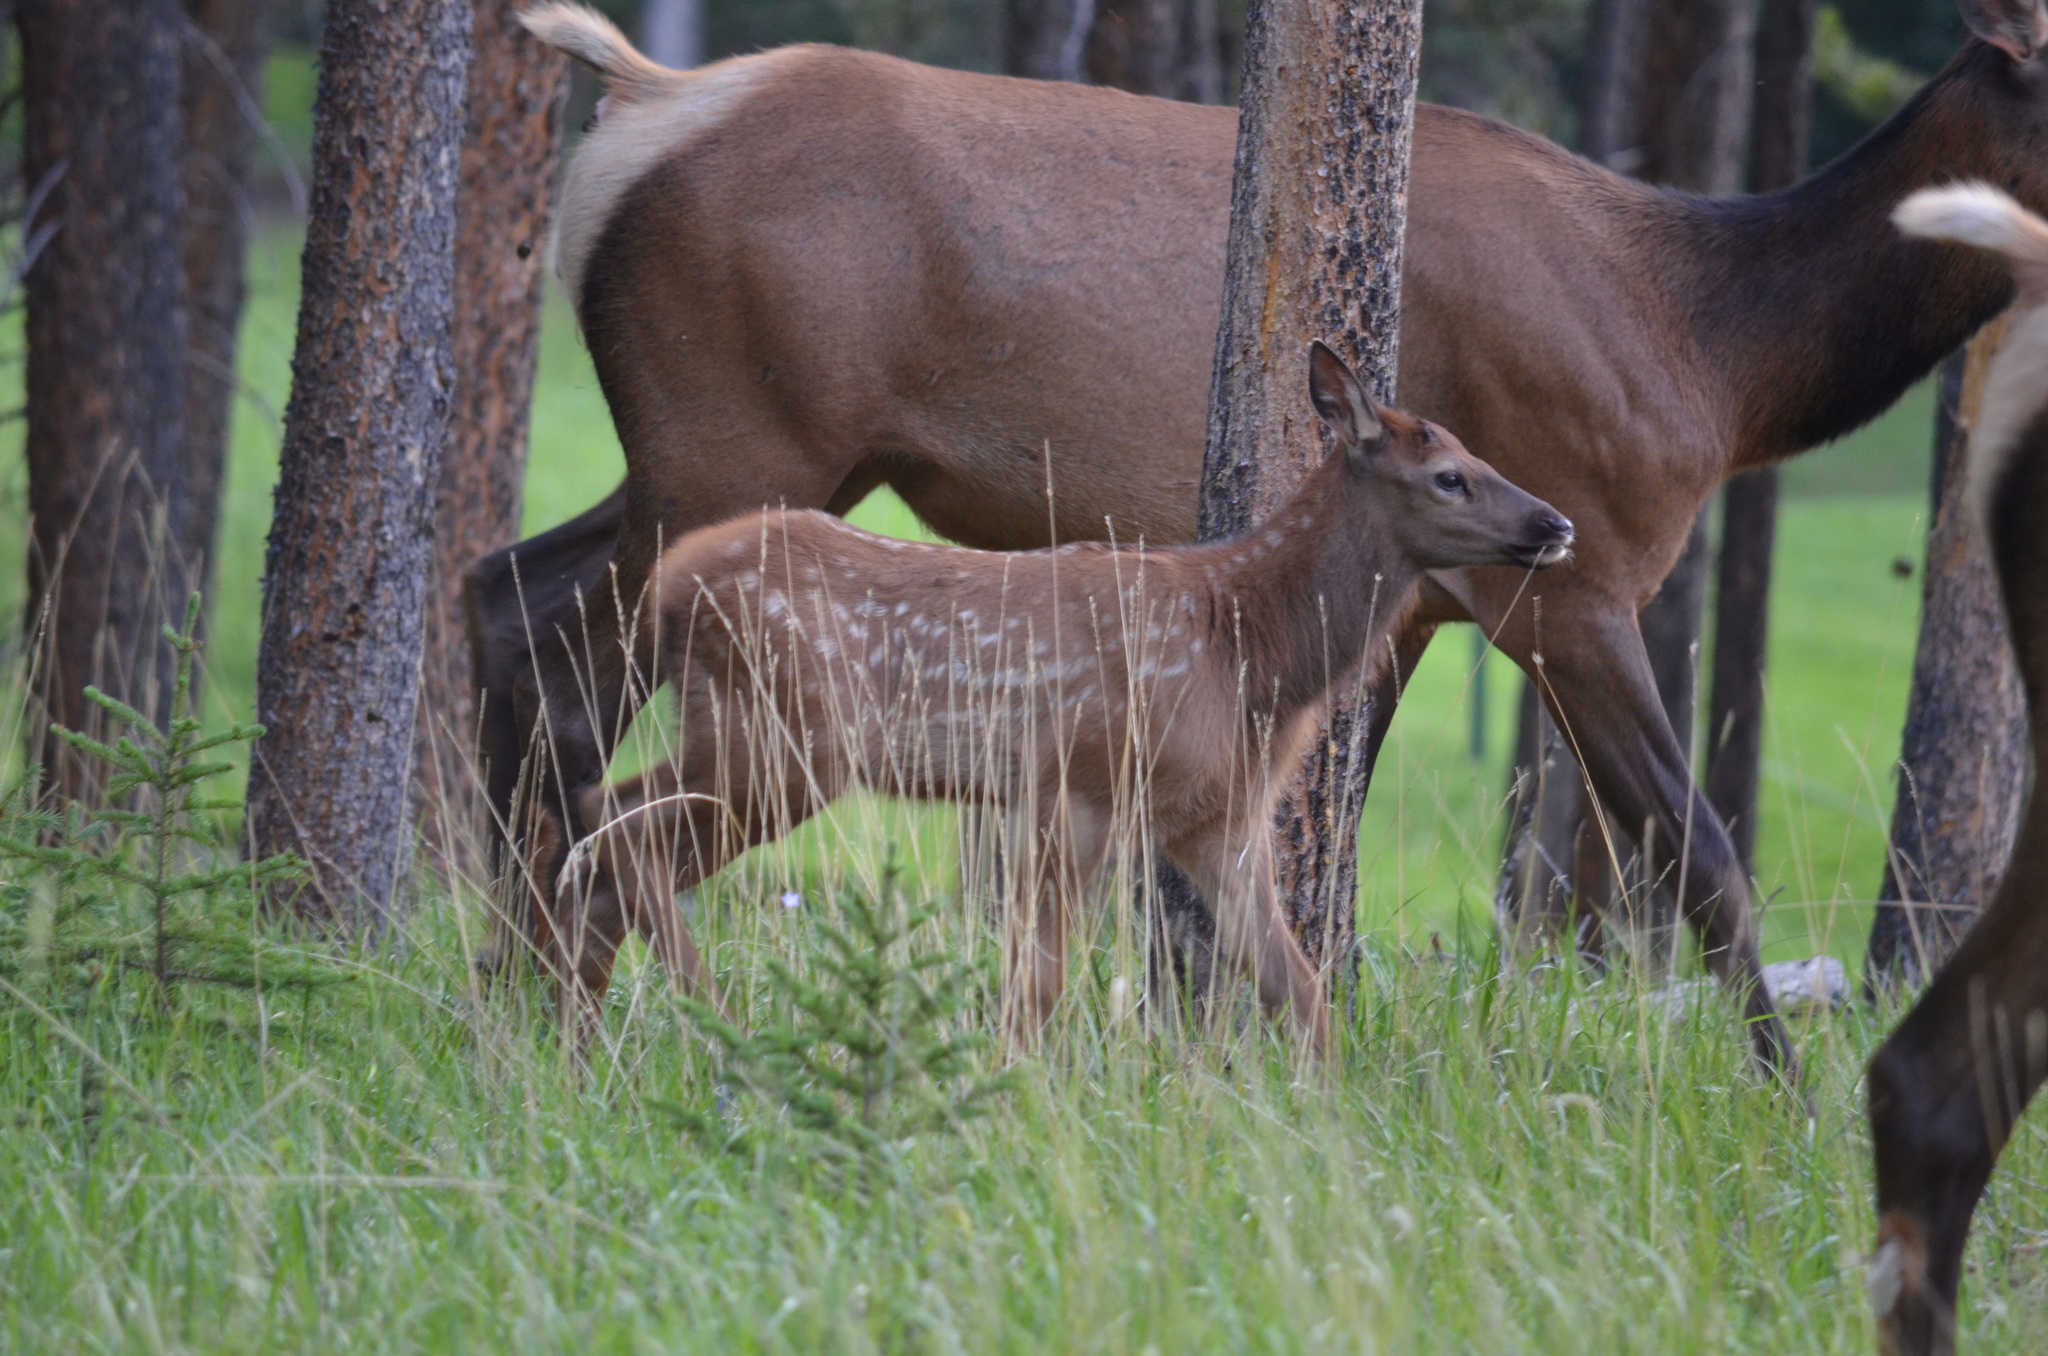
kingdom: Animalia
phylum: Chordata
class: Mammalia
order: Artiodactyla
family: Cervidae
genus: Cervus
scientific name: Cervus elaphus
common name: Red deer
